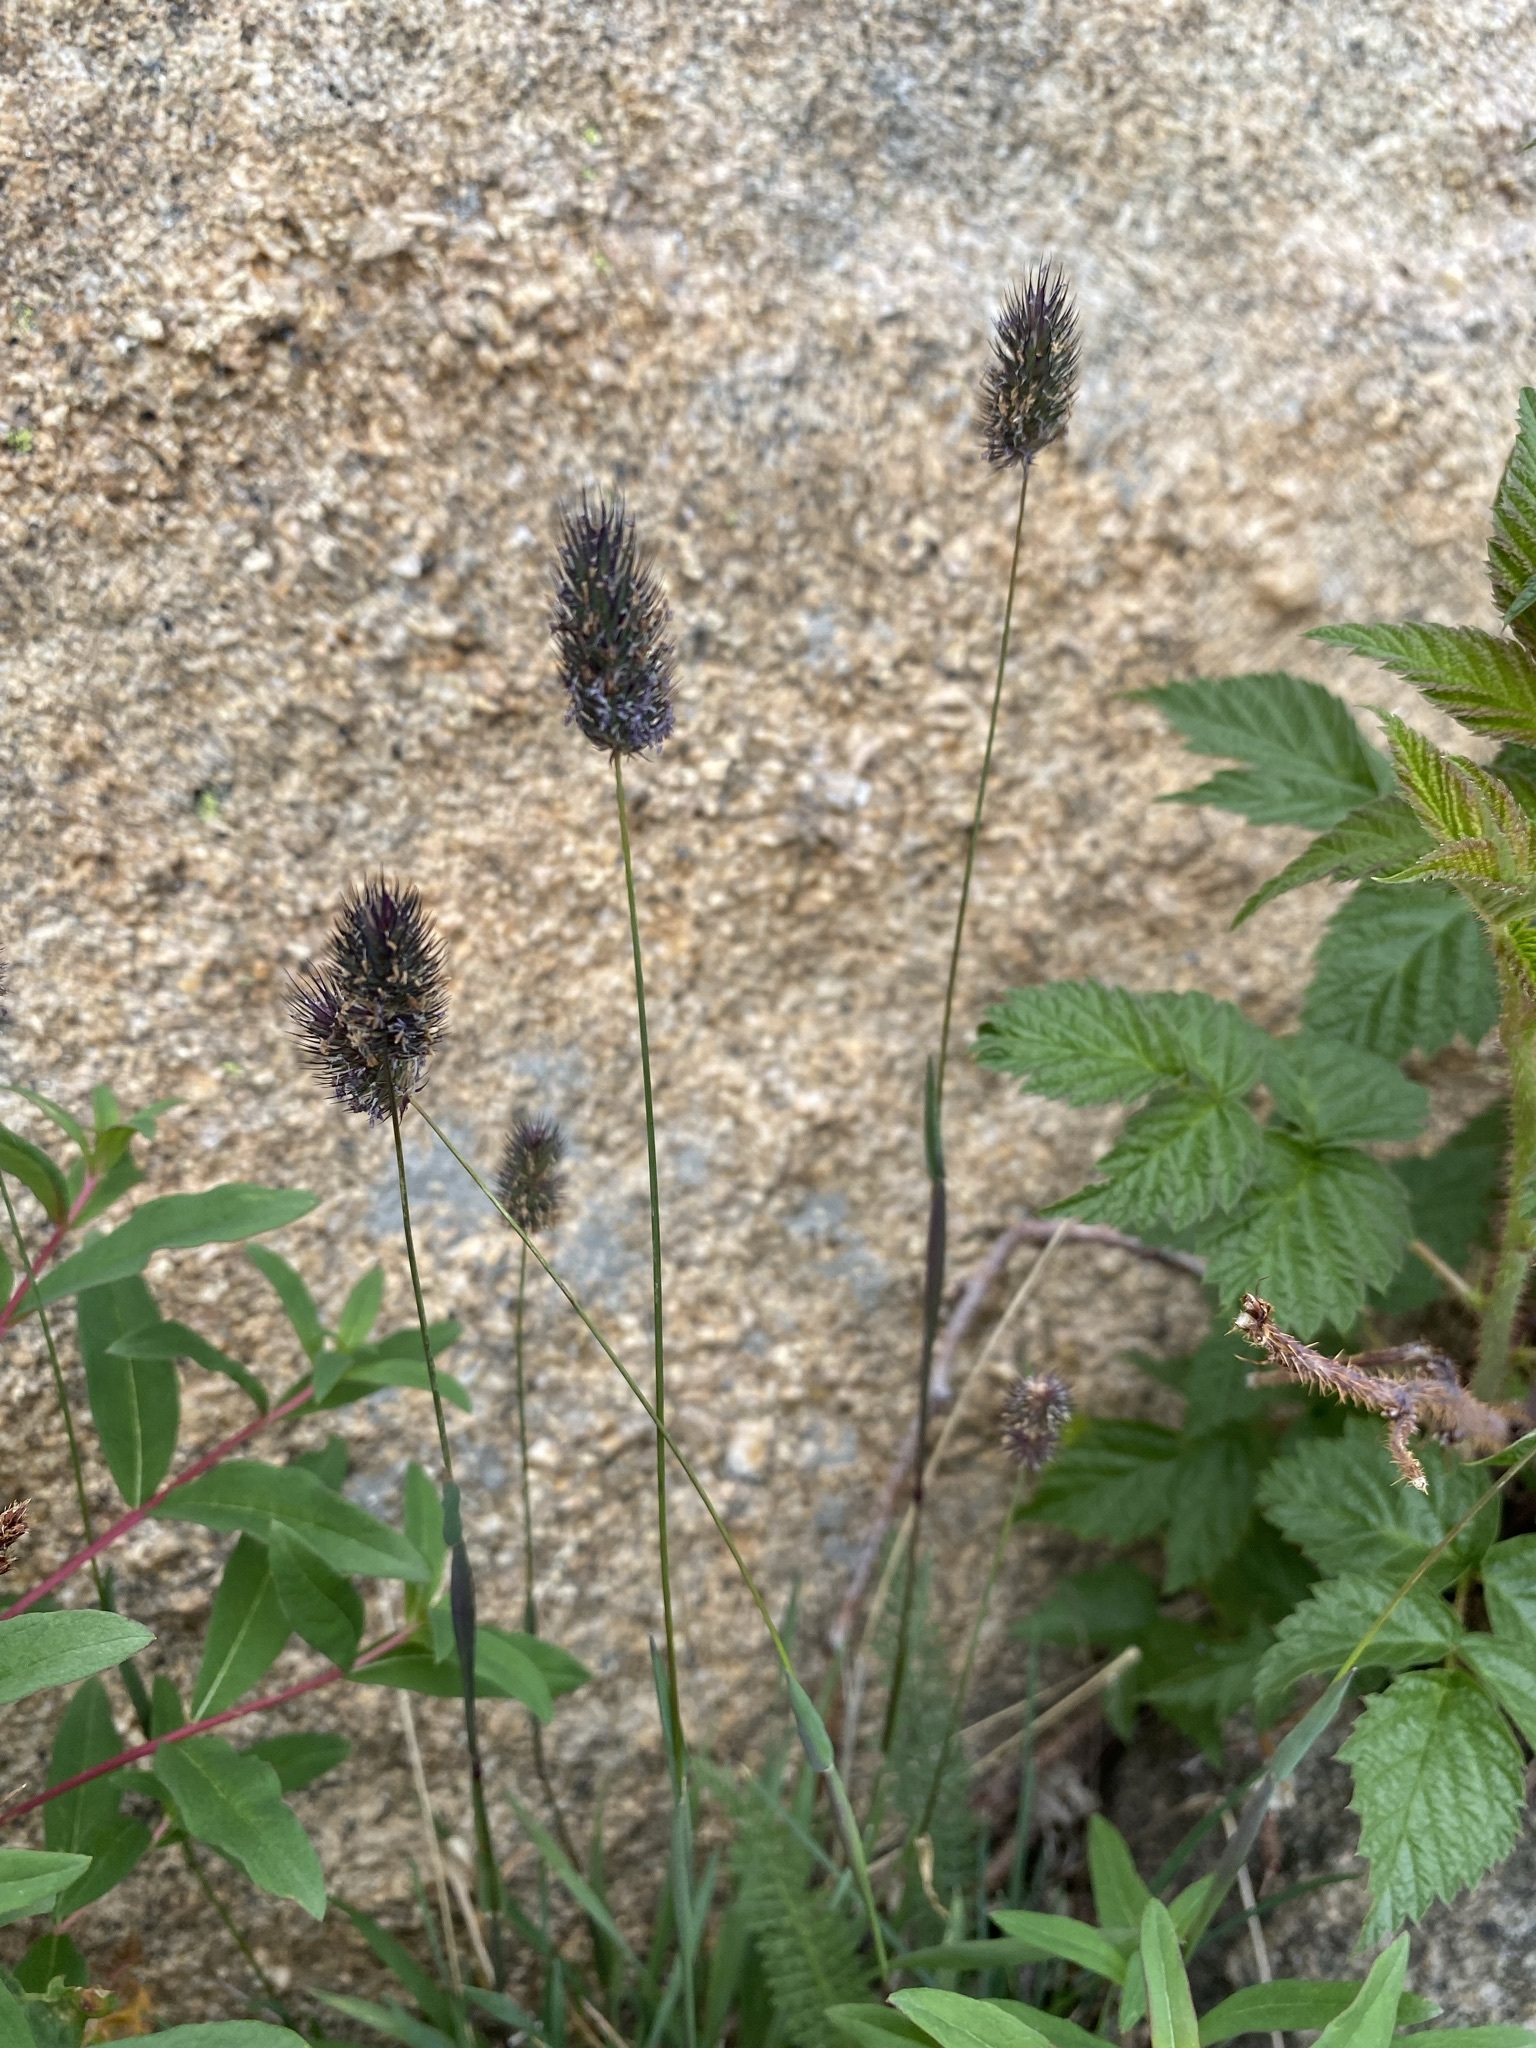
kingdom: Plantae
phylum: Tracheophyta
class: Liliopsida
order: Poales
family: Poaceae
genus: Phleum
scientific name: Phleum alpinum
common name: Alpine cat's-tail
